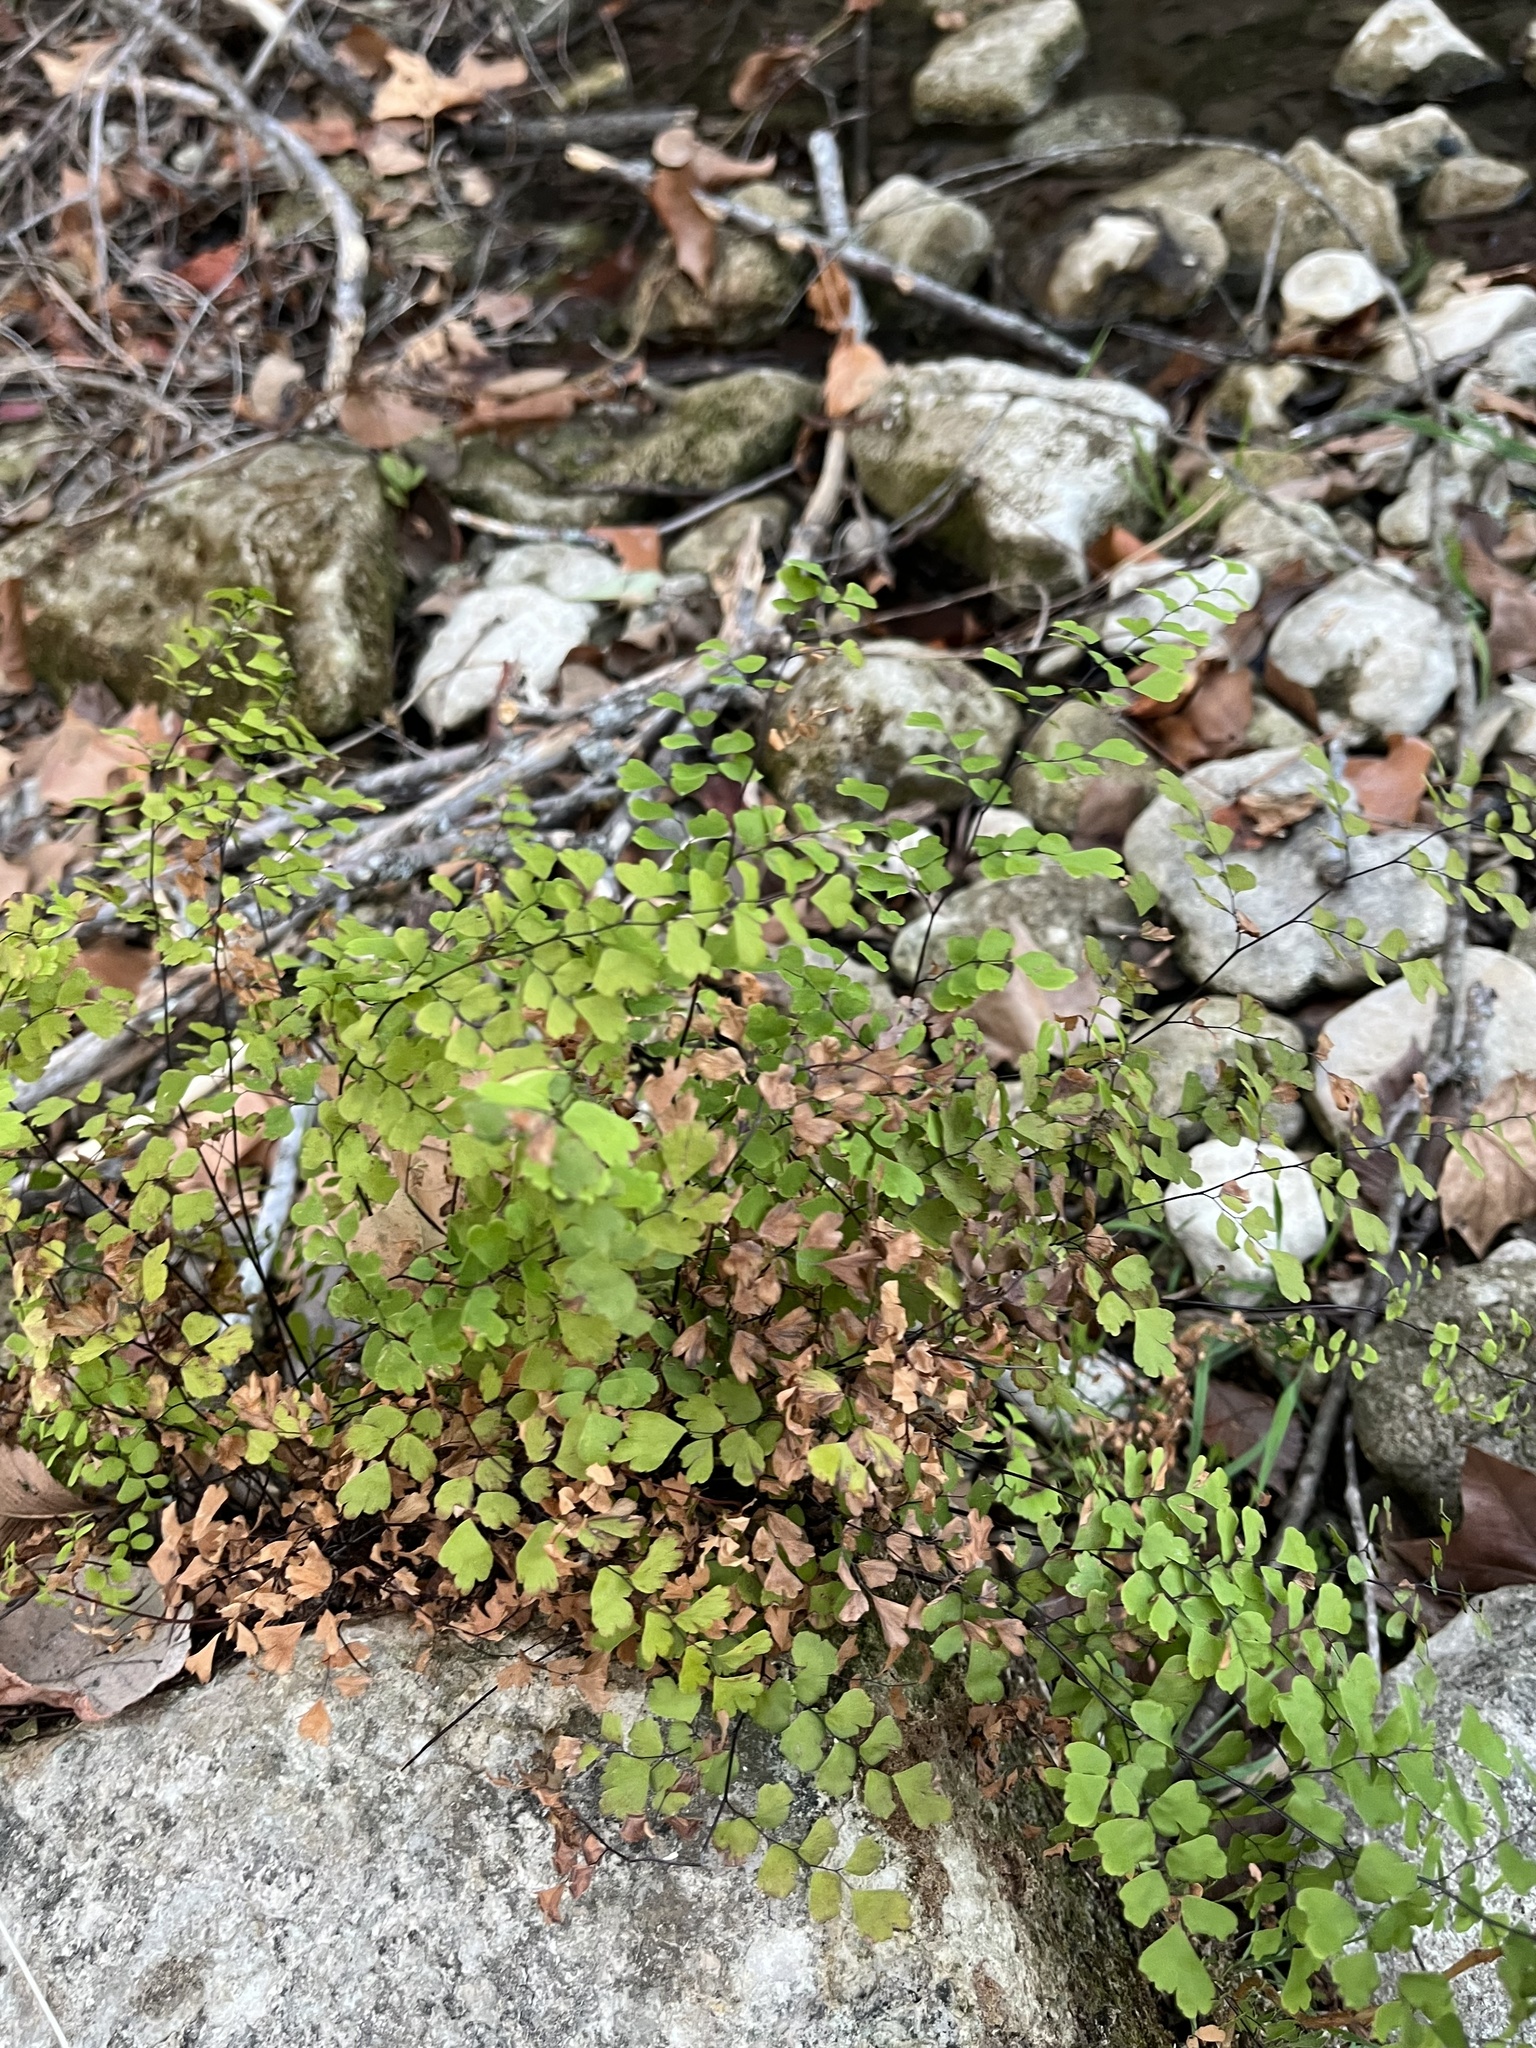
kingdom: Plantae
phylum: Tracheophyta
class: Polypodiopsida
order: Polypodiales
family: Pteridaceae
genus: Adiantum
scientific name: Adiantum capillus-veneris
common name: Maidenhair fern
